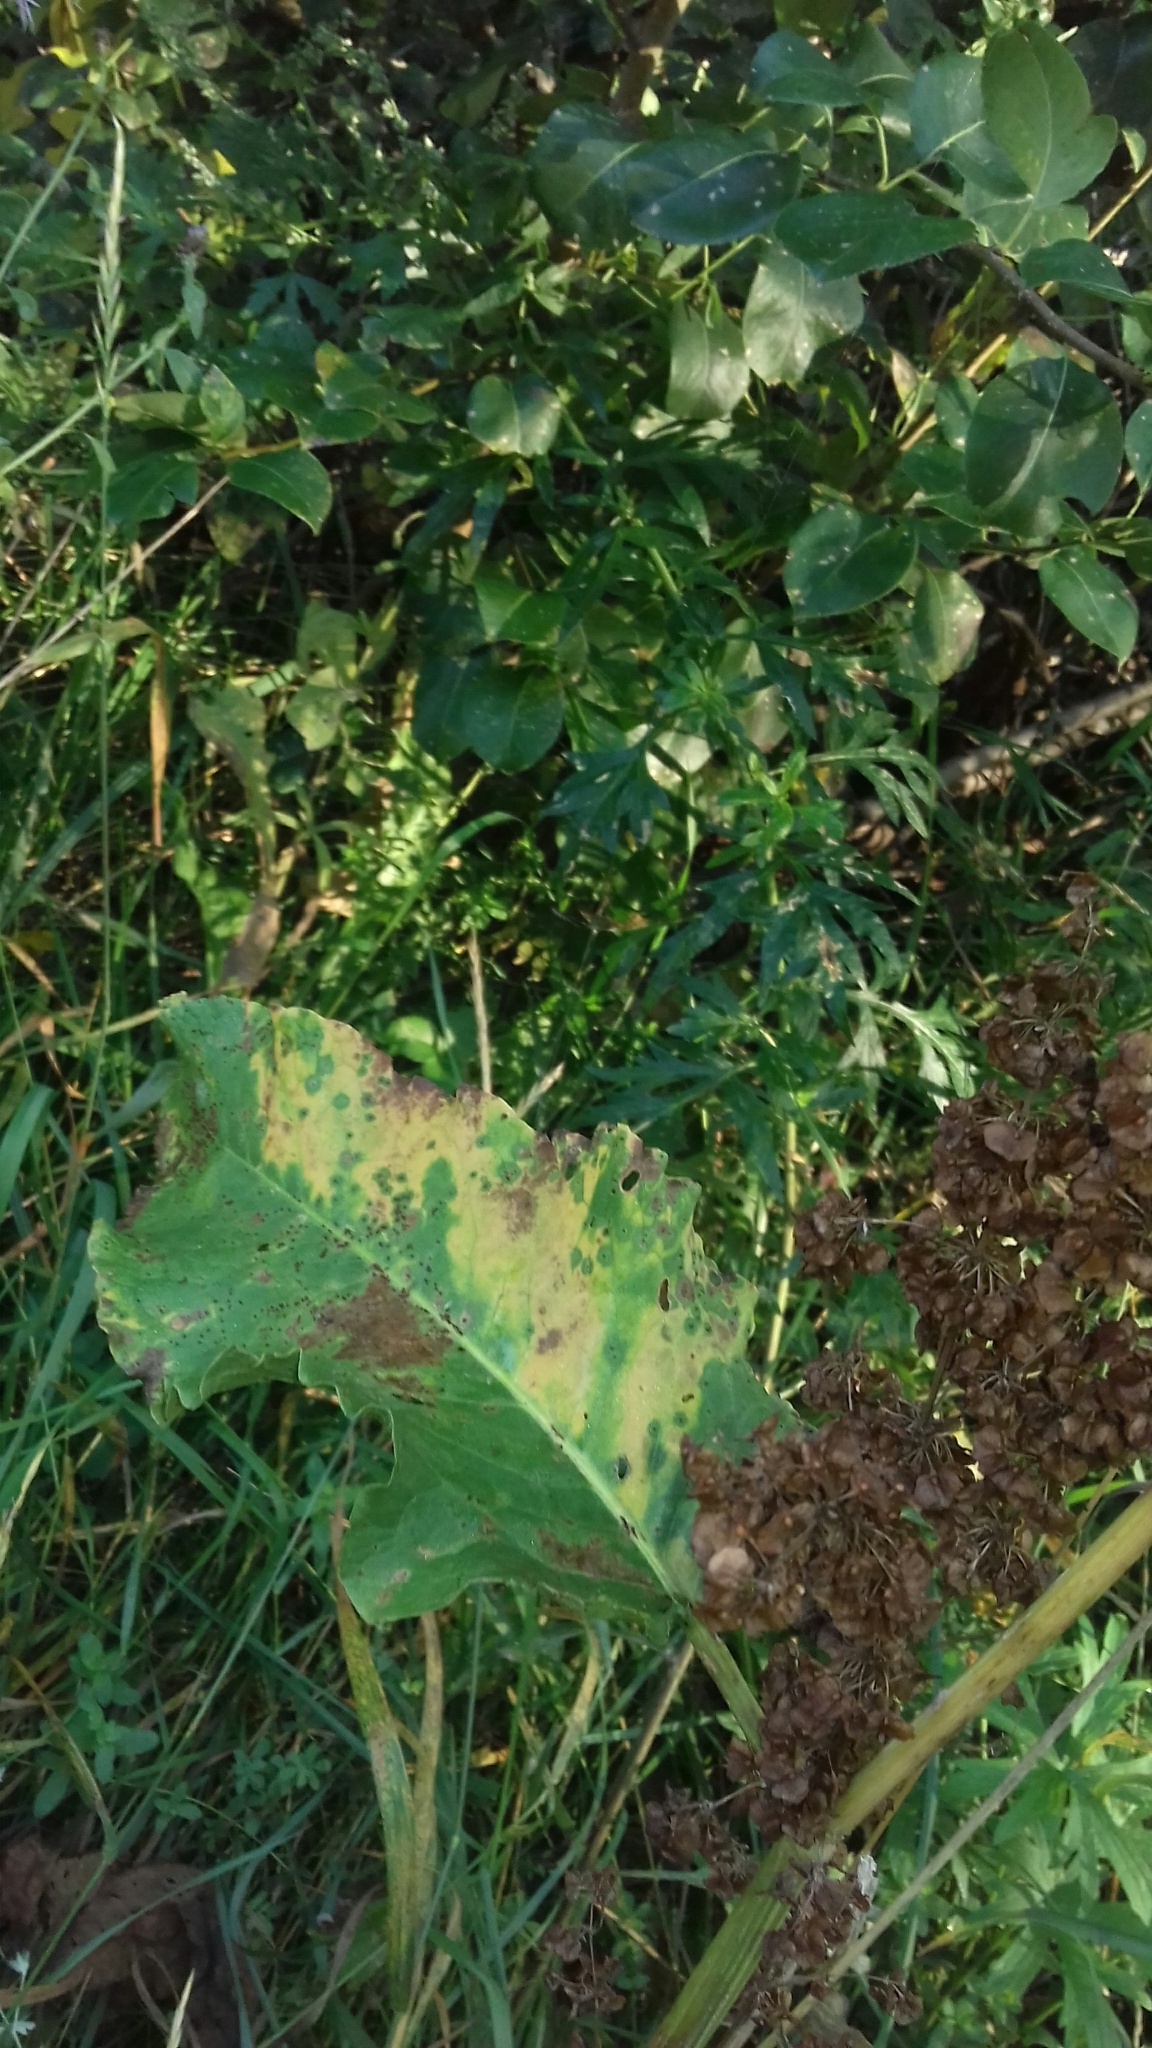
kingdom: Plantae
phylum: Tracheophyta
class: Magnoliopsida
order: Caryophyllales
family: Polygonaceae
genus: Rumex
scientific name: Rumex confertus
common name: Russian dock
